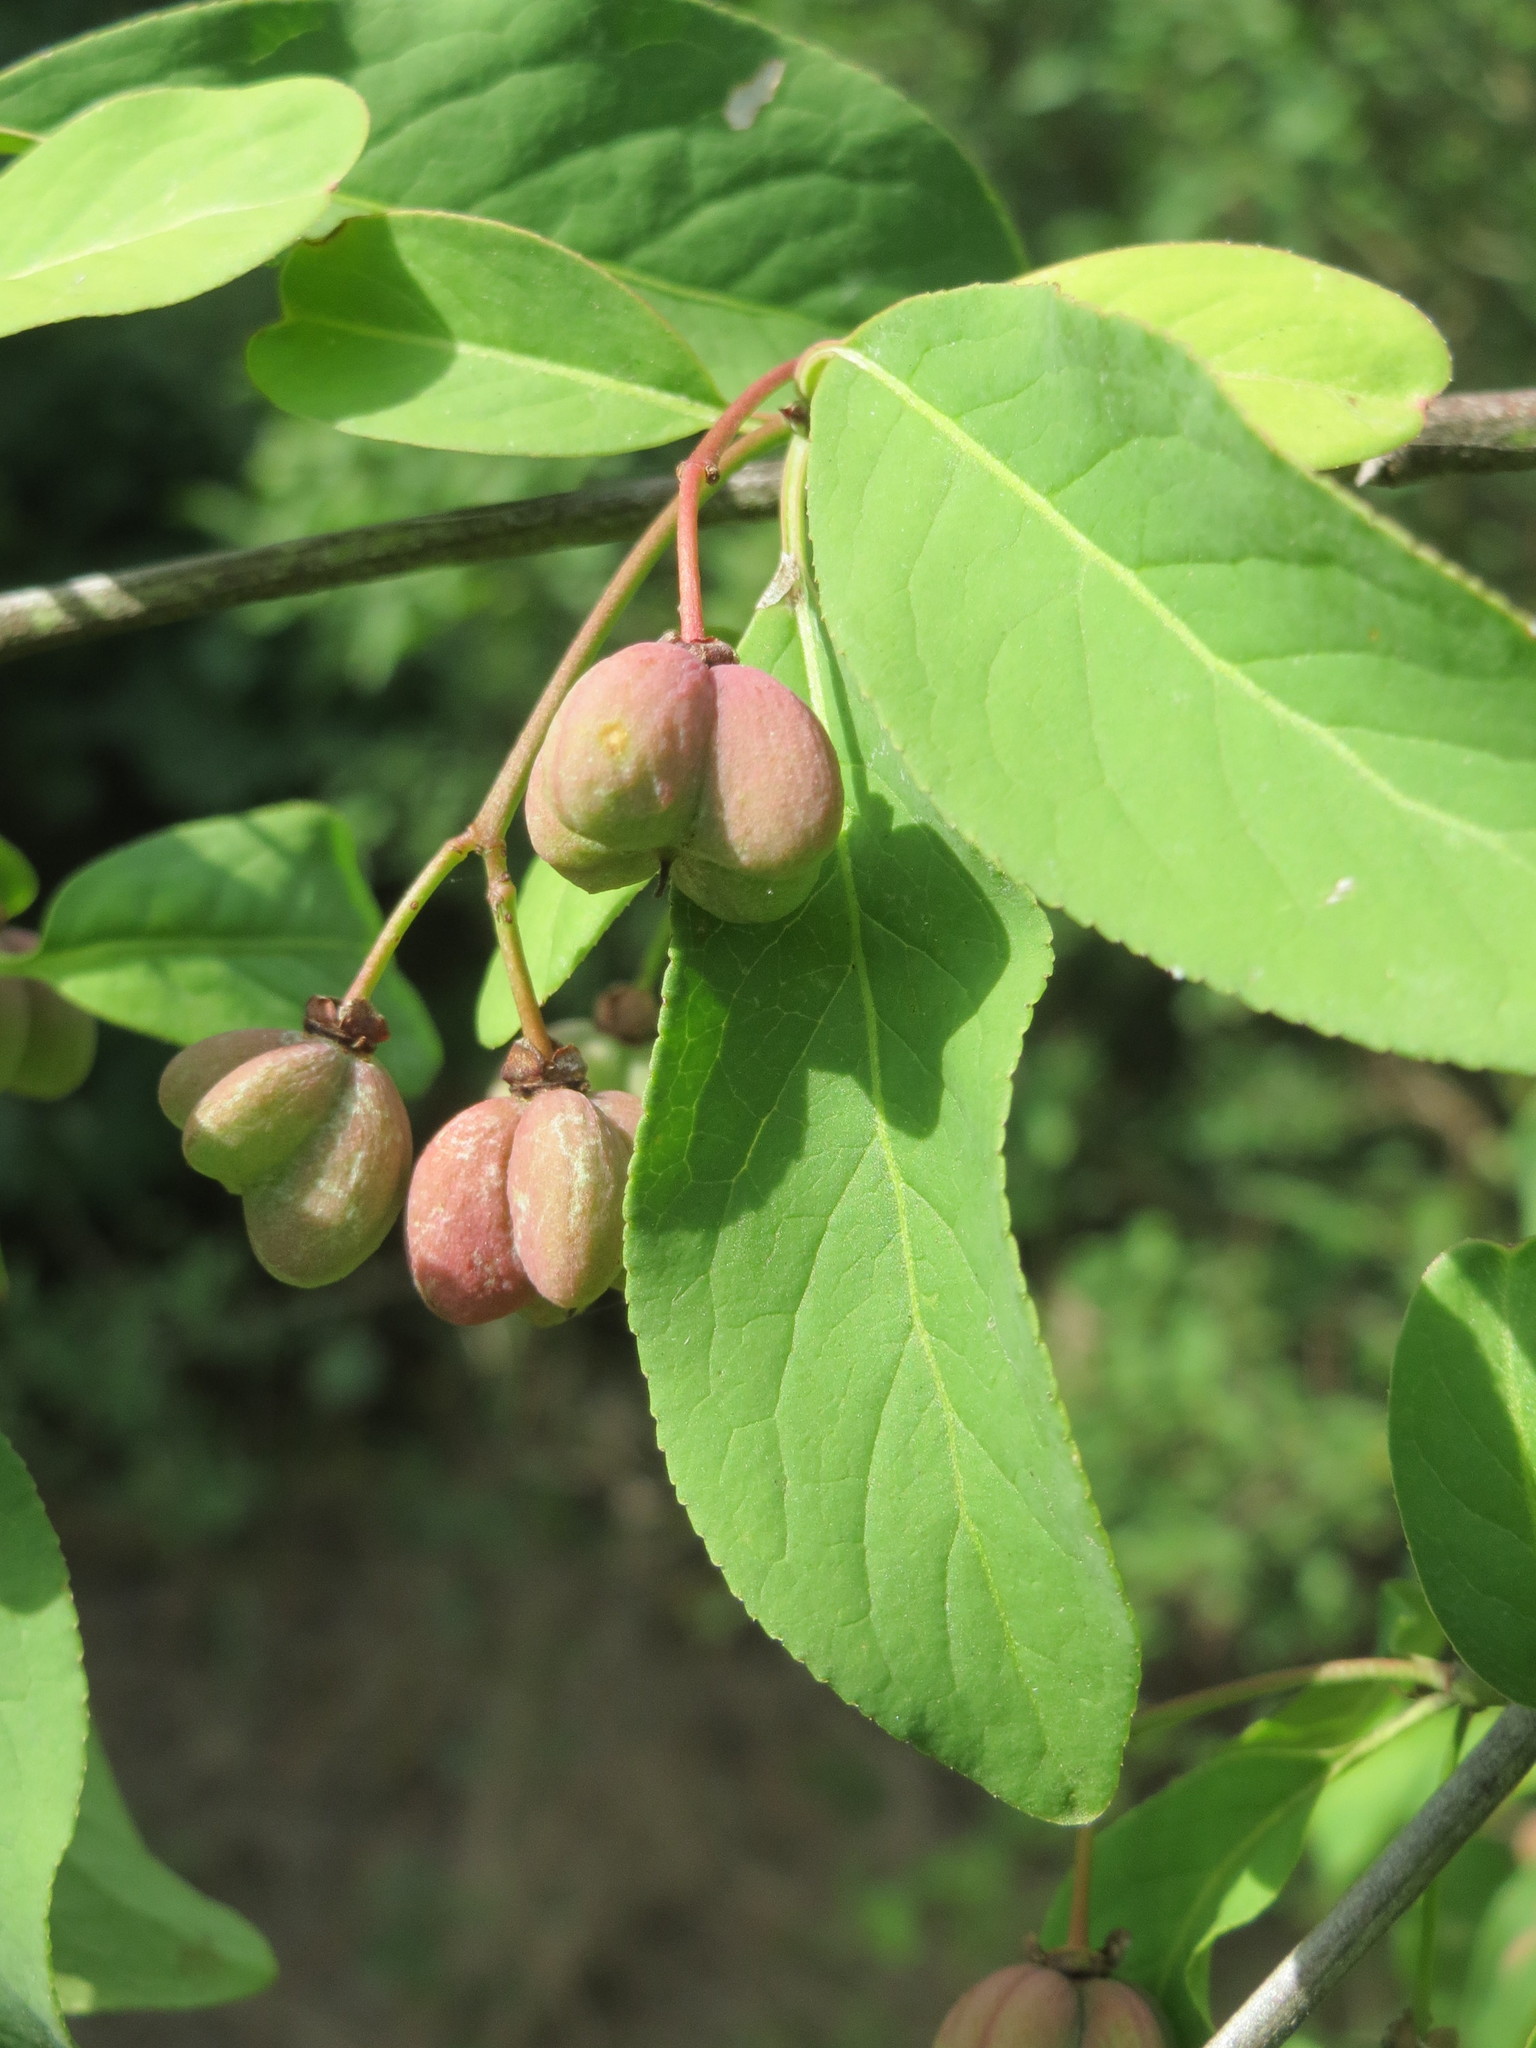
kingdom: Plantae
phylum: Tracheophyta
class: Magnoliopsida
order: Celastrales
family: Celastraceae
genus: Euonymus
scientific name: Euonymus europaeus
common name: Spindle
